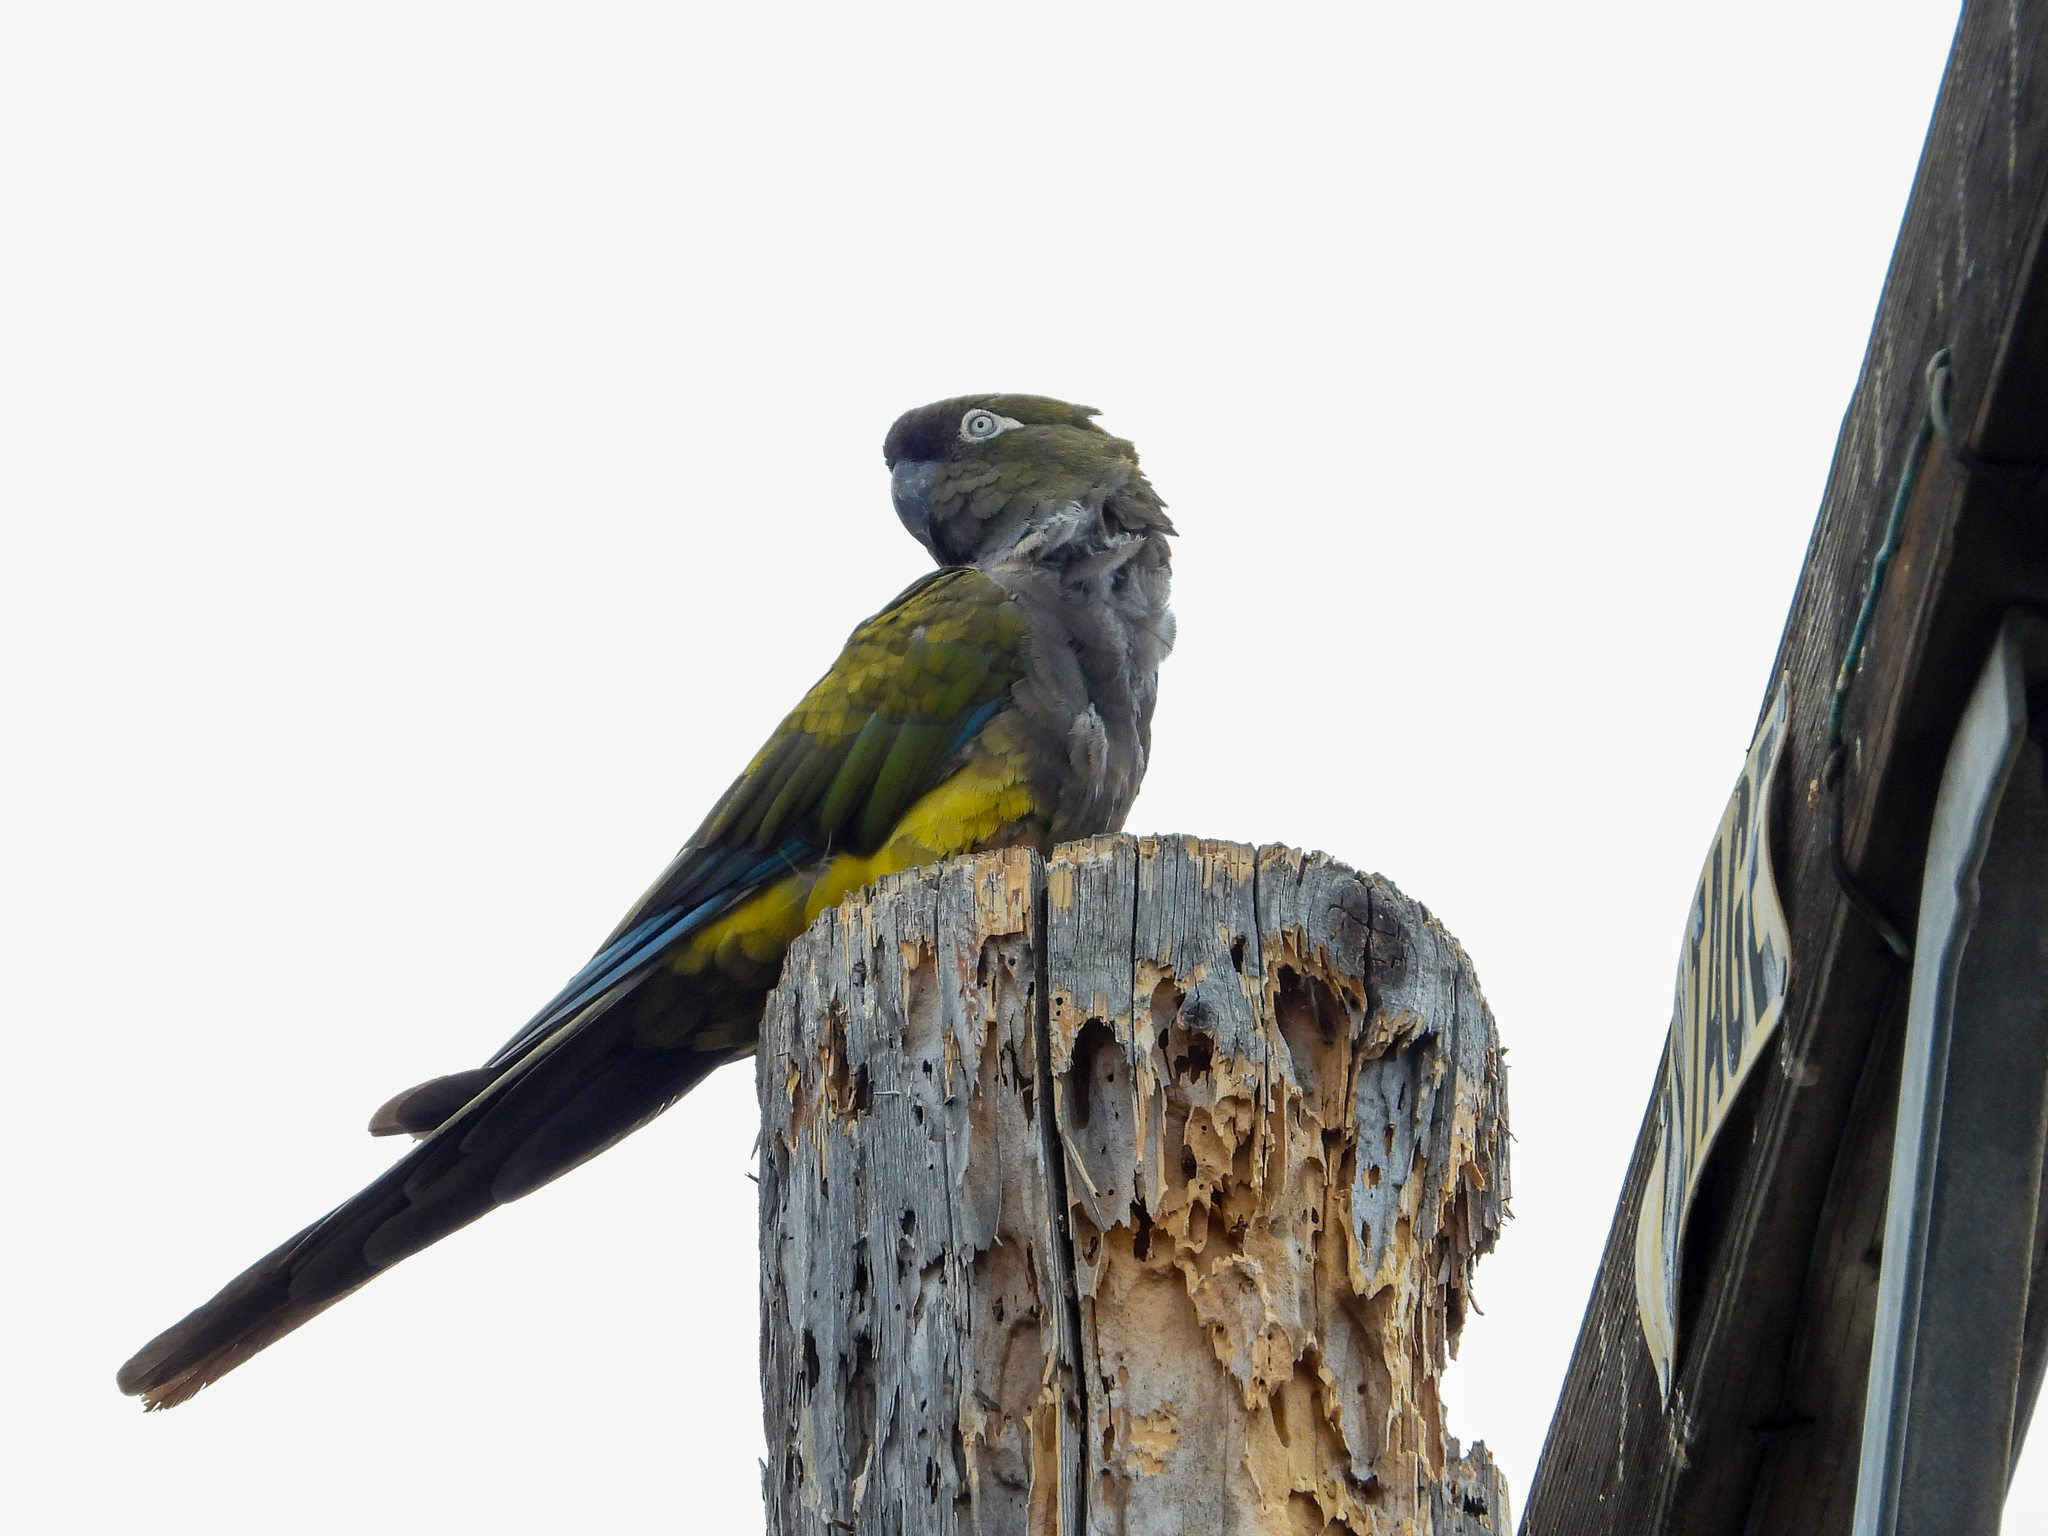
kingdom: Animalia
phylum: Chordata
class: Aves
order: Psittaciformes
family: Psittacidae
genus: Cyanoliseus
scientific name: Cyanoliseus patagonus
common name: Burrowing parrot
